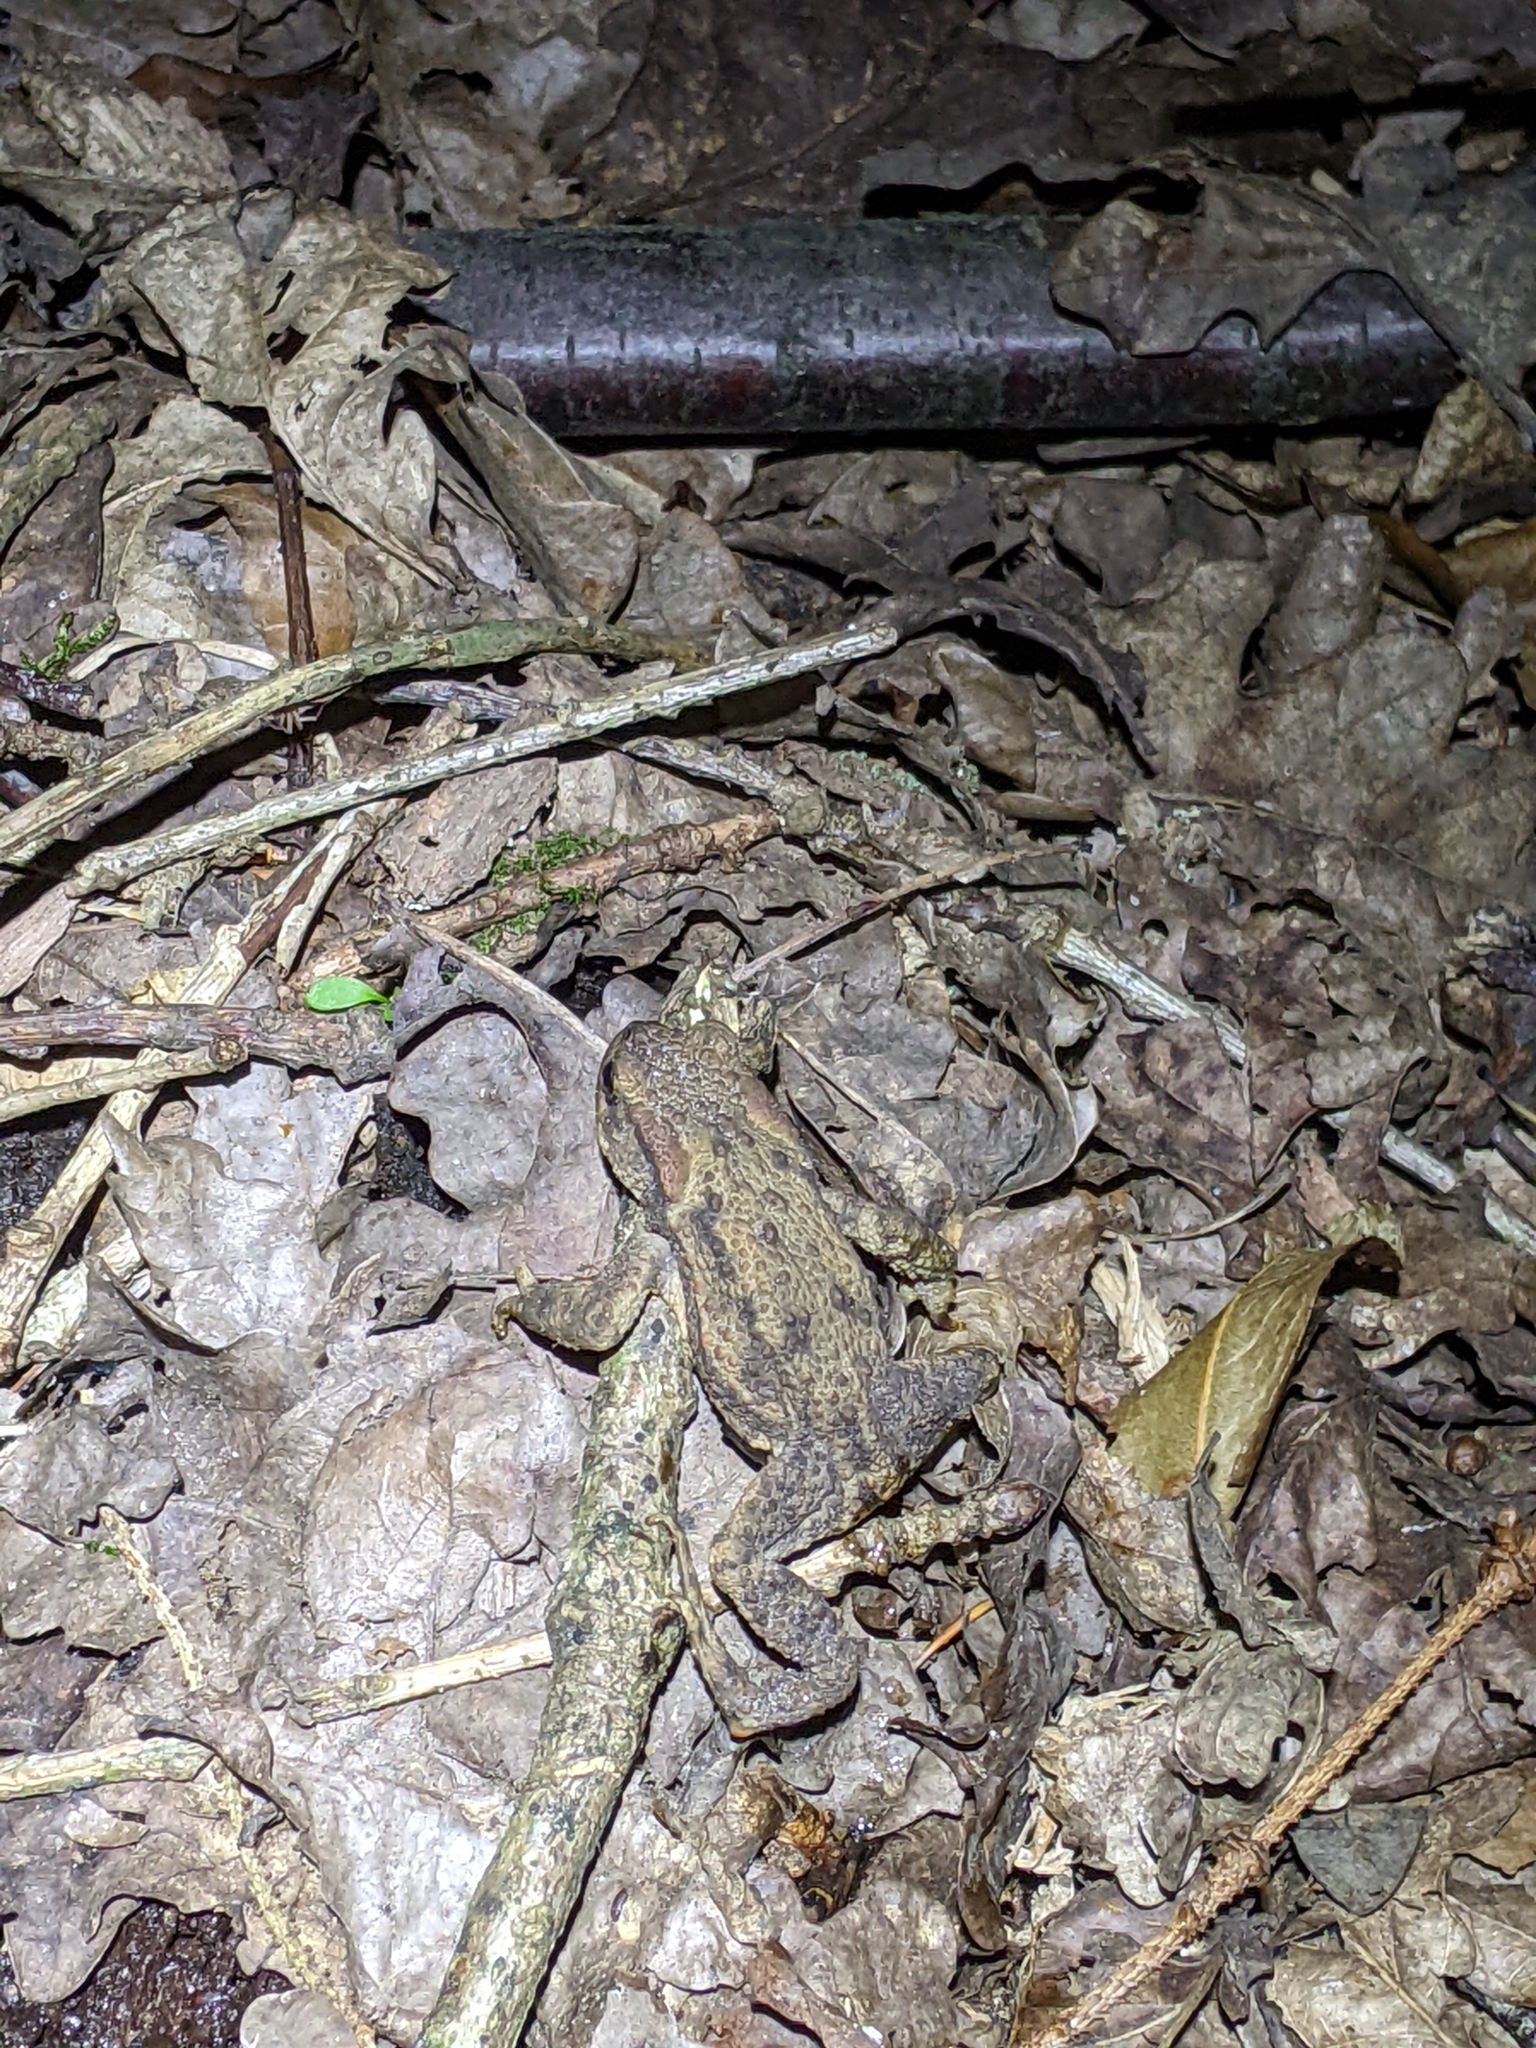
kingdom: Animalia
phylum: Chordata
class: Amphibia
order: Anura
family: Bufonidae
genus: Bufo
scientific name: Bufo bufo
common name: Common toad
